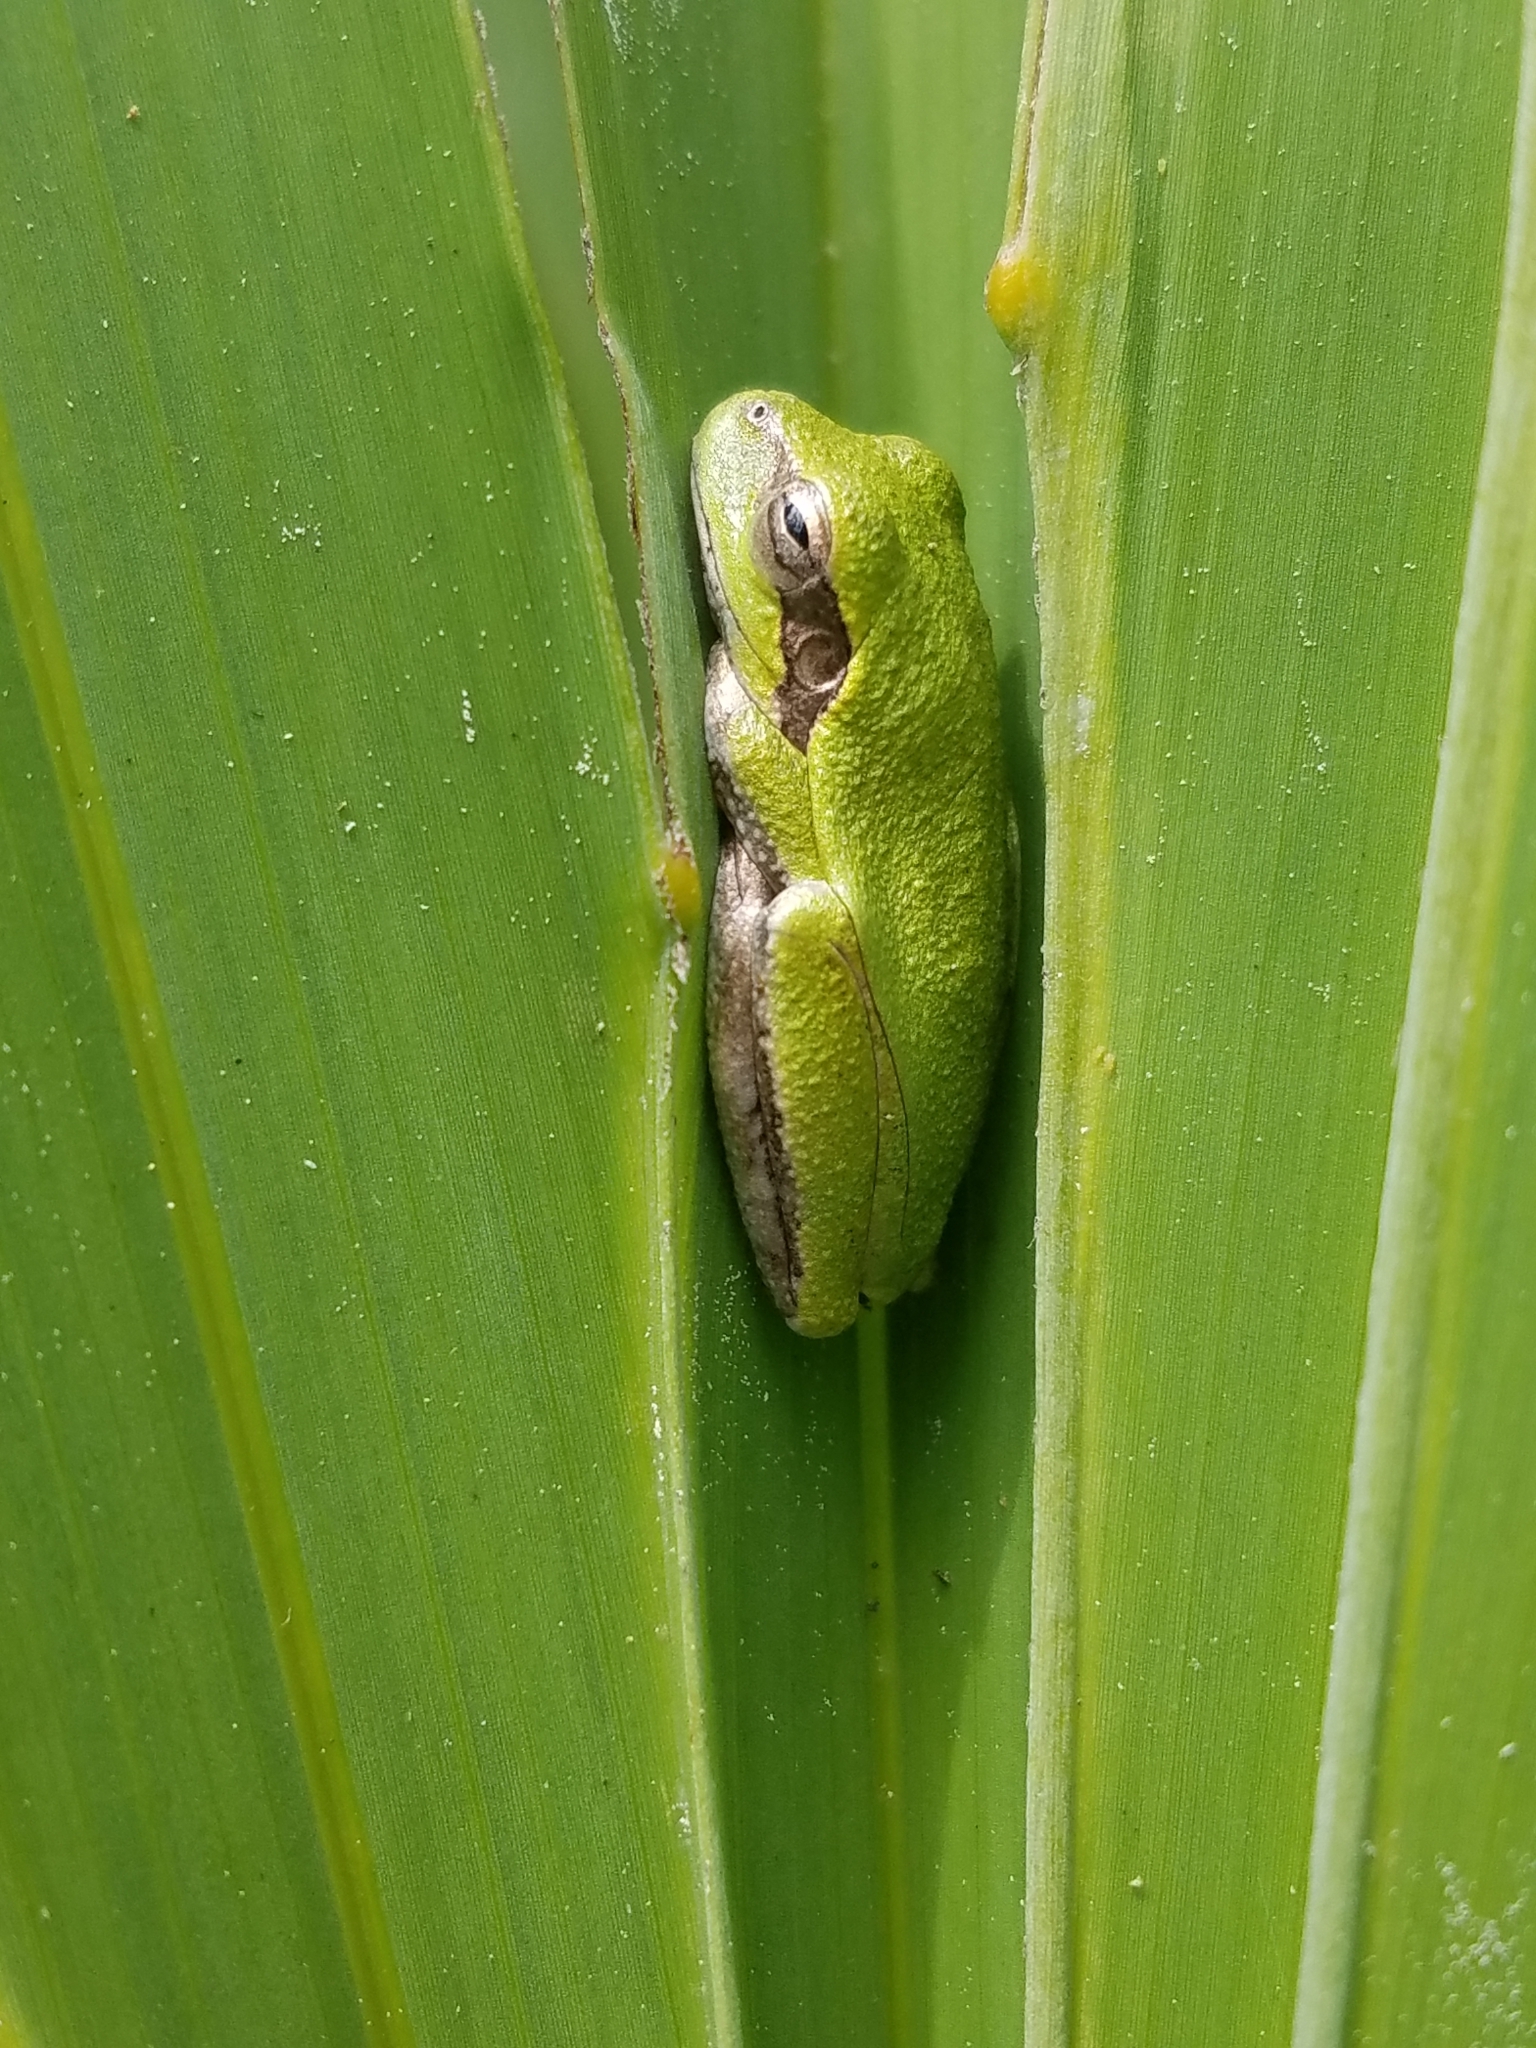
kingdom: Animalia
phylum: Chordata
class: Amphibia
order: Anura
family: Hylidae
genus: Hyla
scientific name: Hyla femoralis
